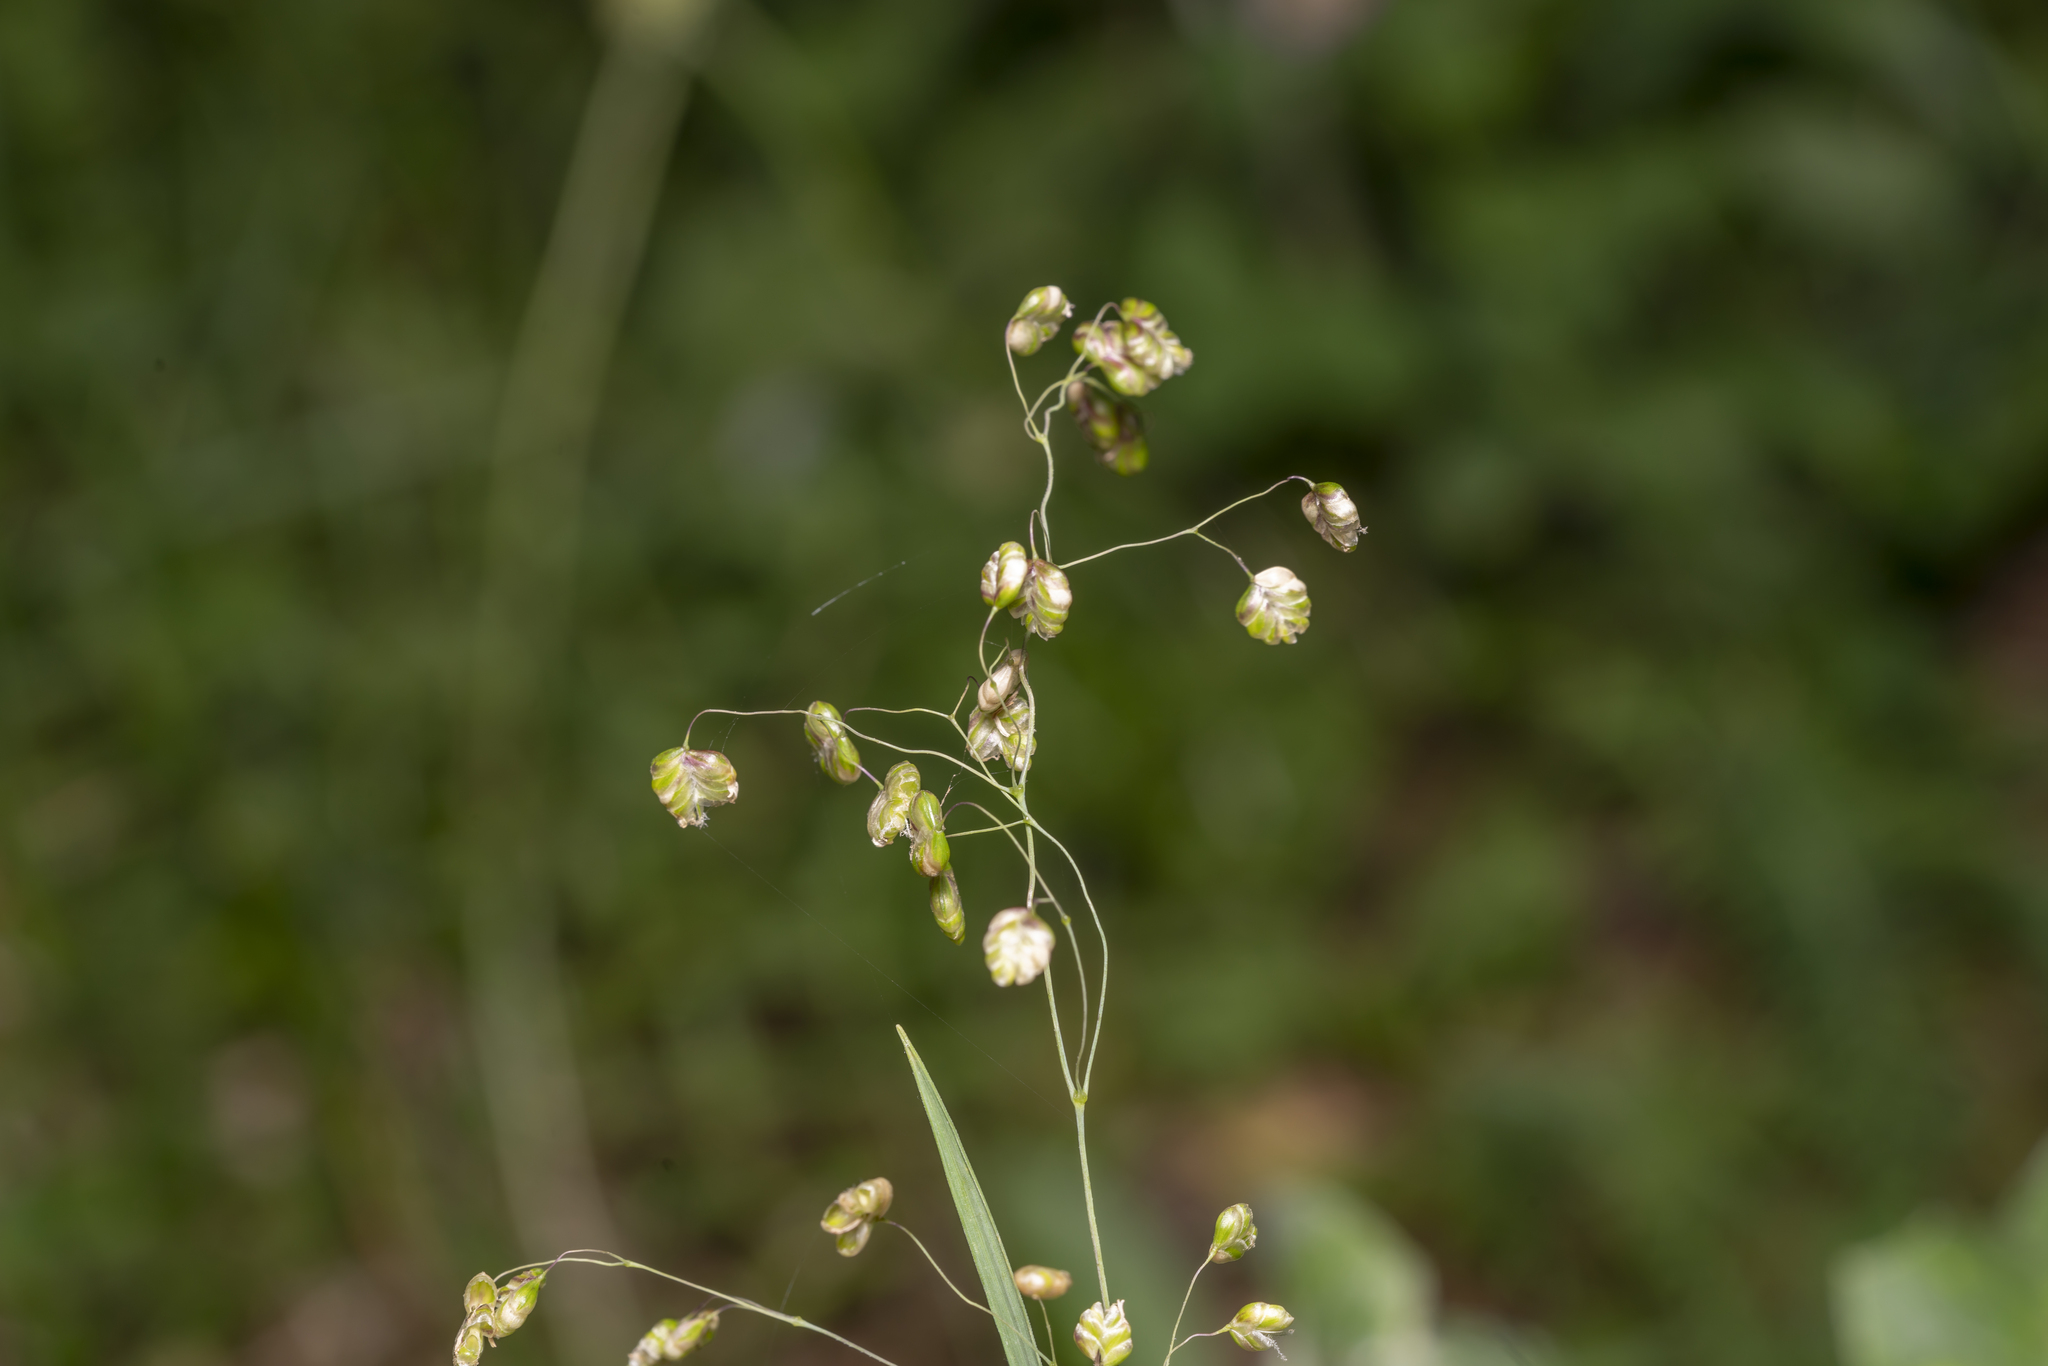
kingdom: Plantae
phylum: Tracheophyta
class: Liliopsida
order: Poales
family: Poaceae
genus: Briza
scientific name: Briza media
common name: Quaking grass
